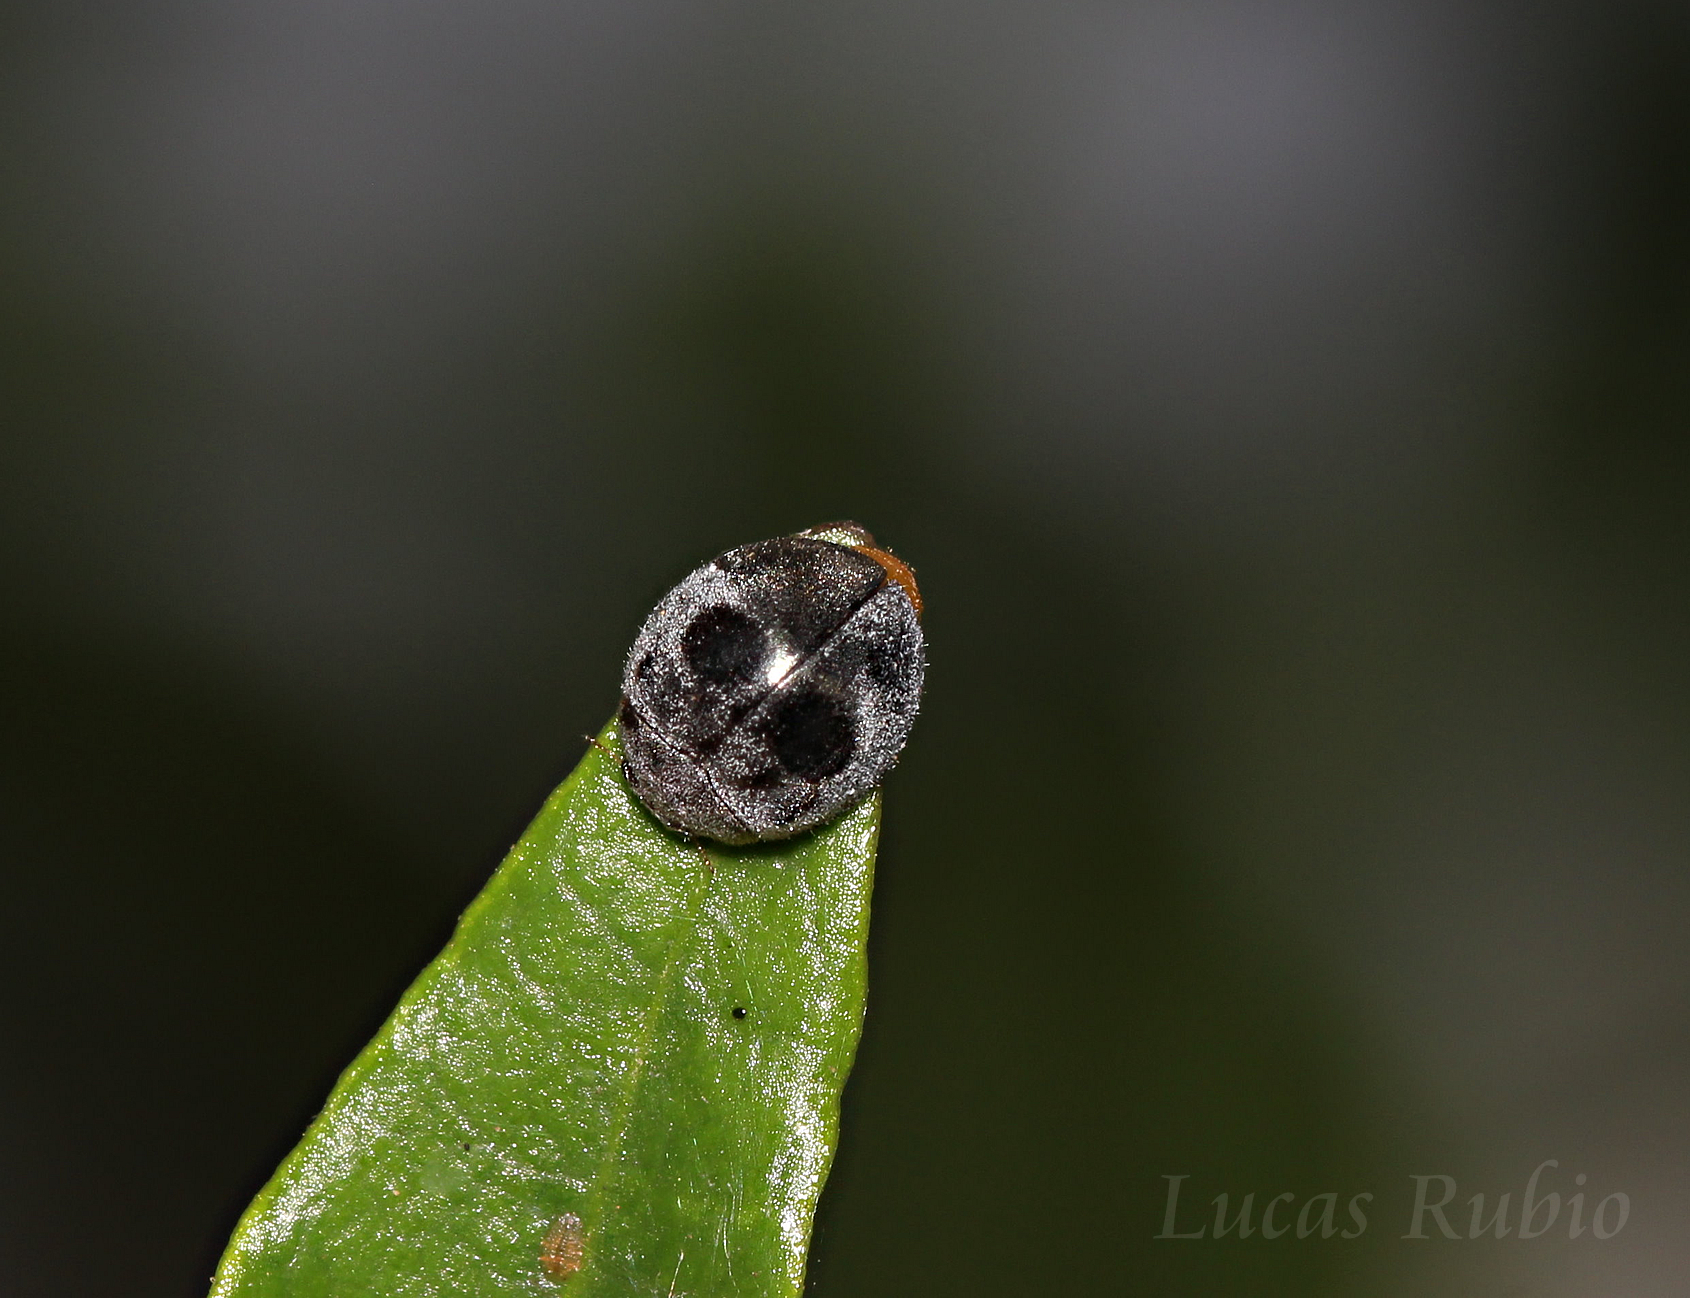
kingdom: Animalia
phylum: Arthropoda
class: Insecta
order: Coleoptera
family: Coccinellidae
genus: Azya
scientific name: Azya luteipes
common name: Ladybird beetle
